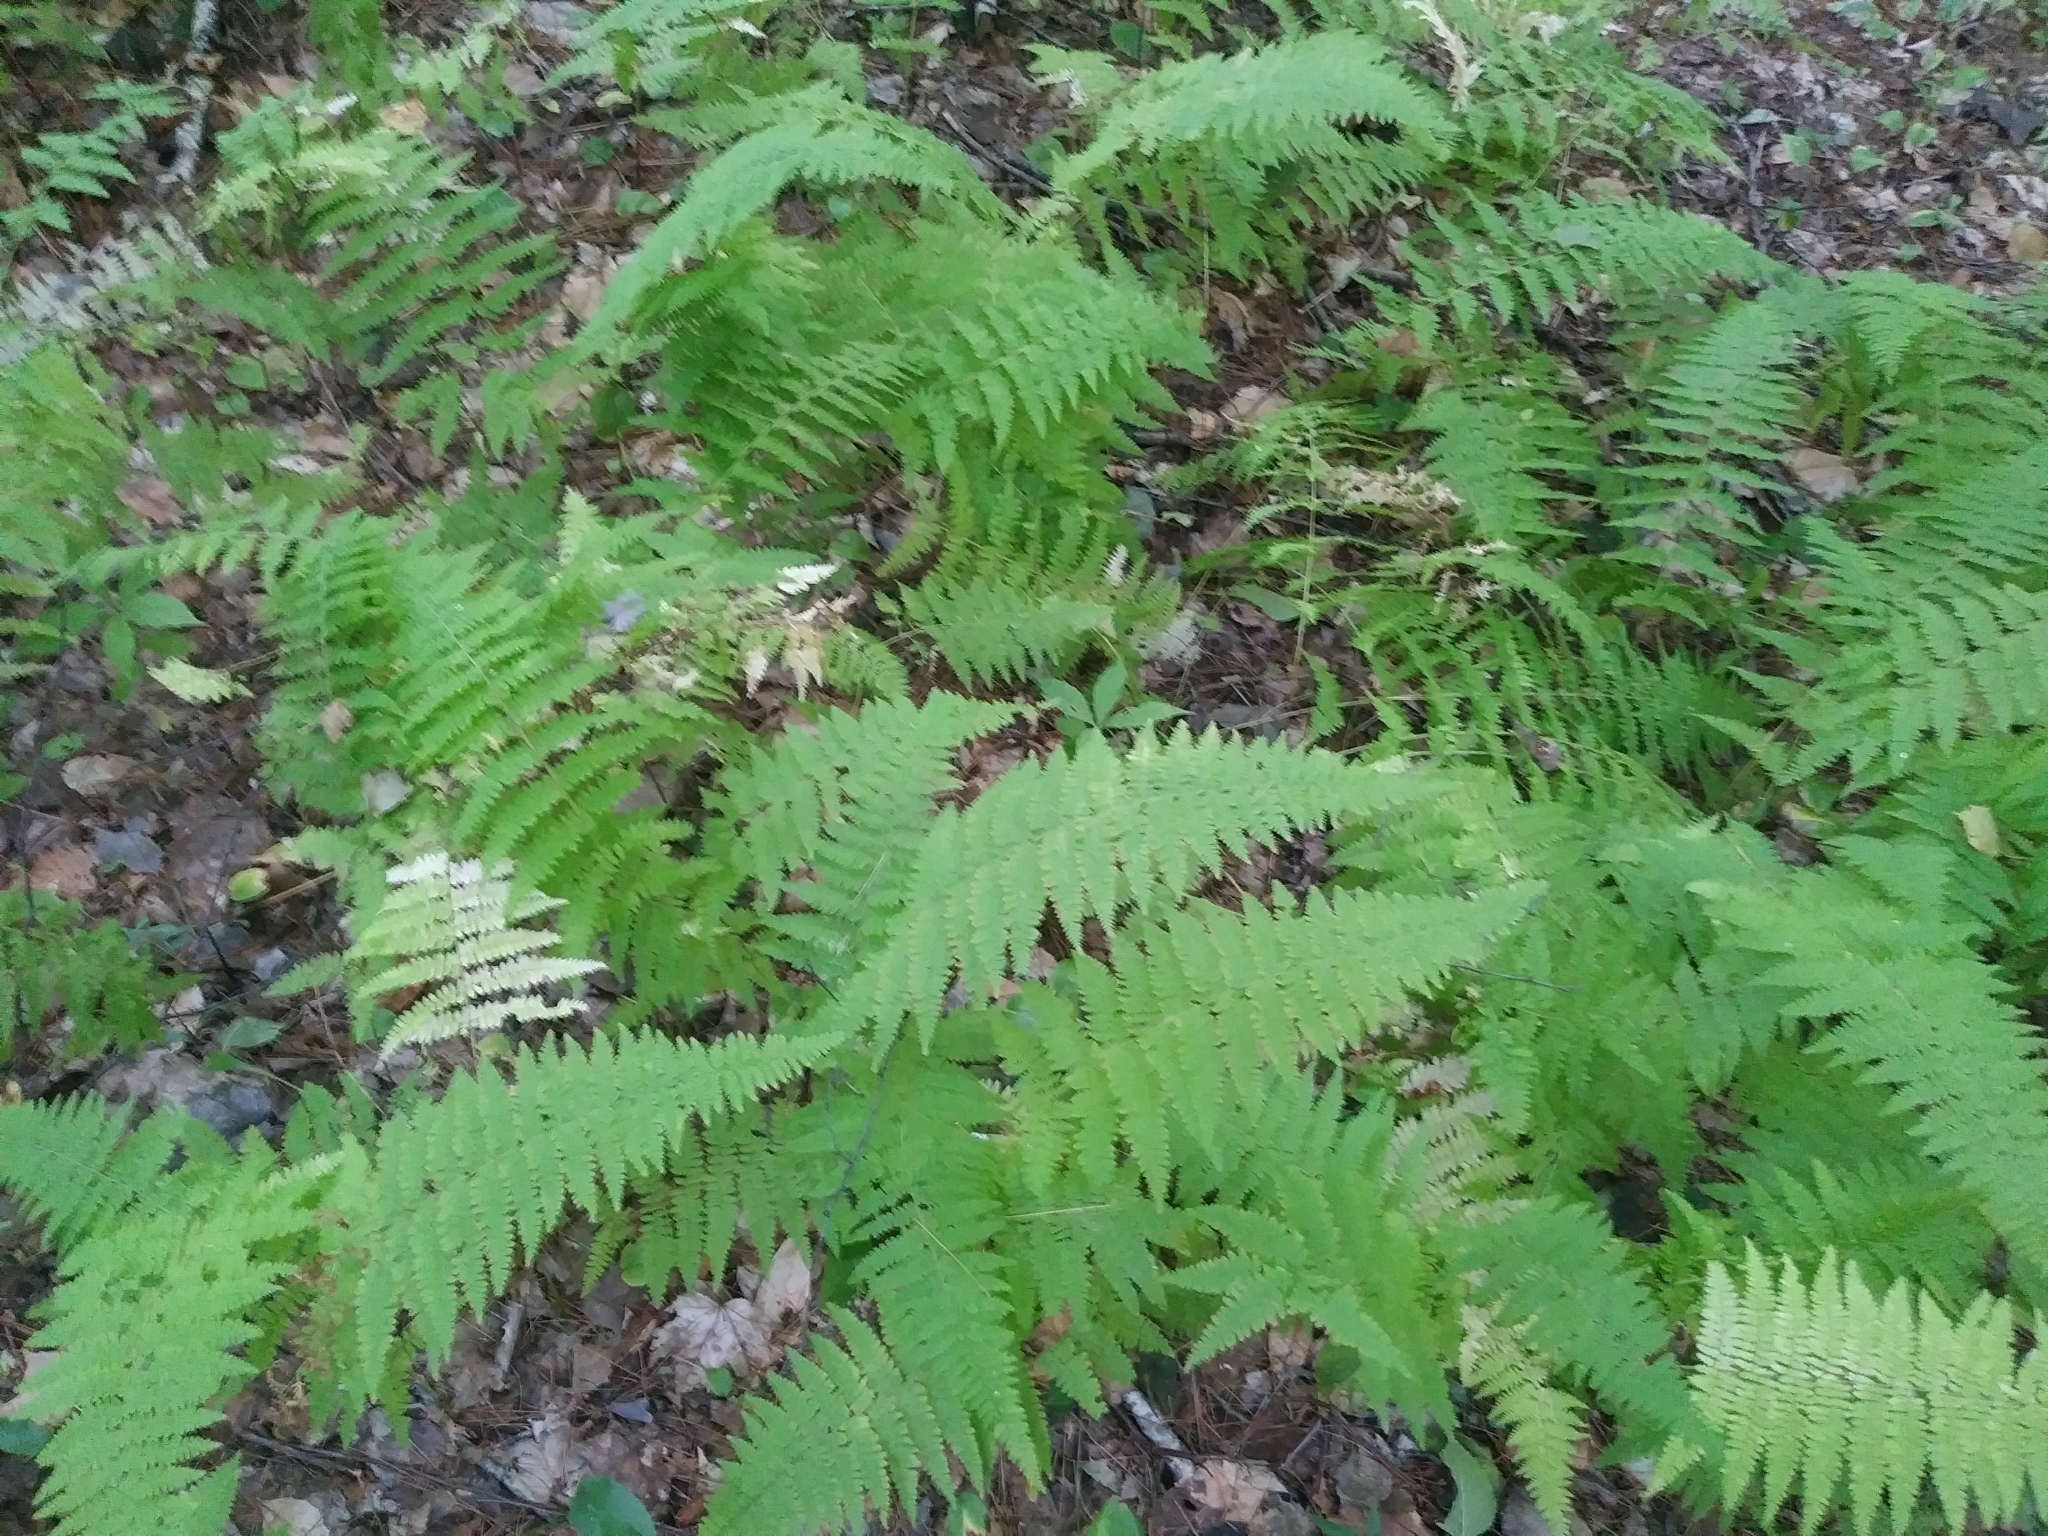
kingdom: Plantae
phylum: Tracheophyta
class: Polypodiopsida
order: Polypodiales
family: Dennstaedtiaceae
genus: Sitobolium
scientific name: Sitobolium punctilobum
